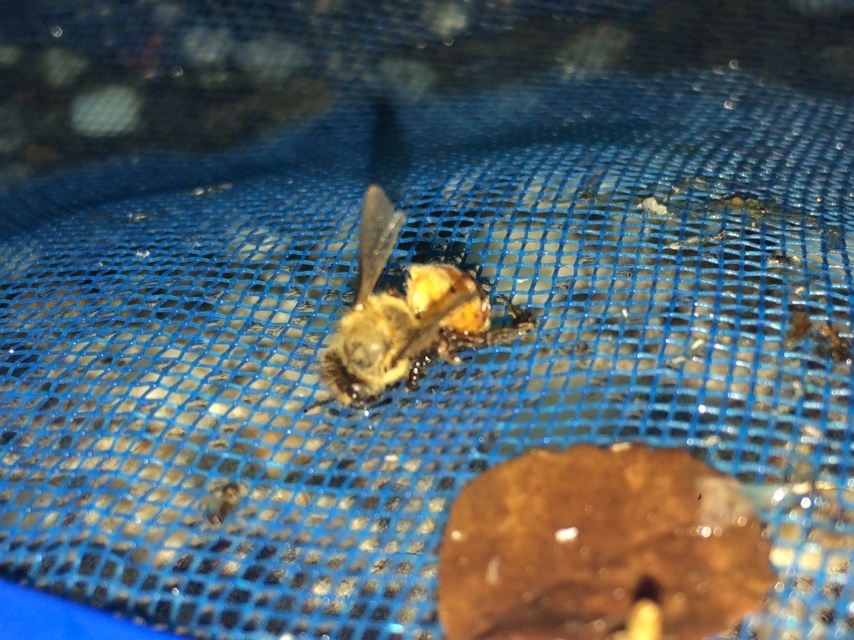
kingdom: Animalia
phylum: Arthropoda
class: Insecta
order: Hymenoptera
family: Apidae
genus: Apis
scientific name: Apis mellifera
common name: Honey bee
